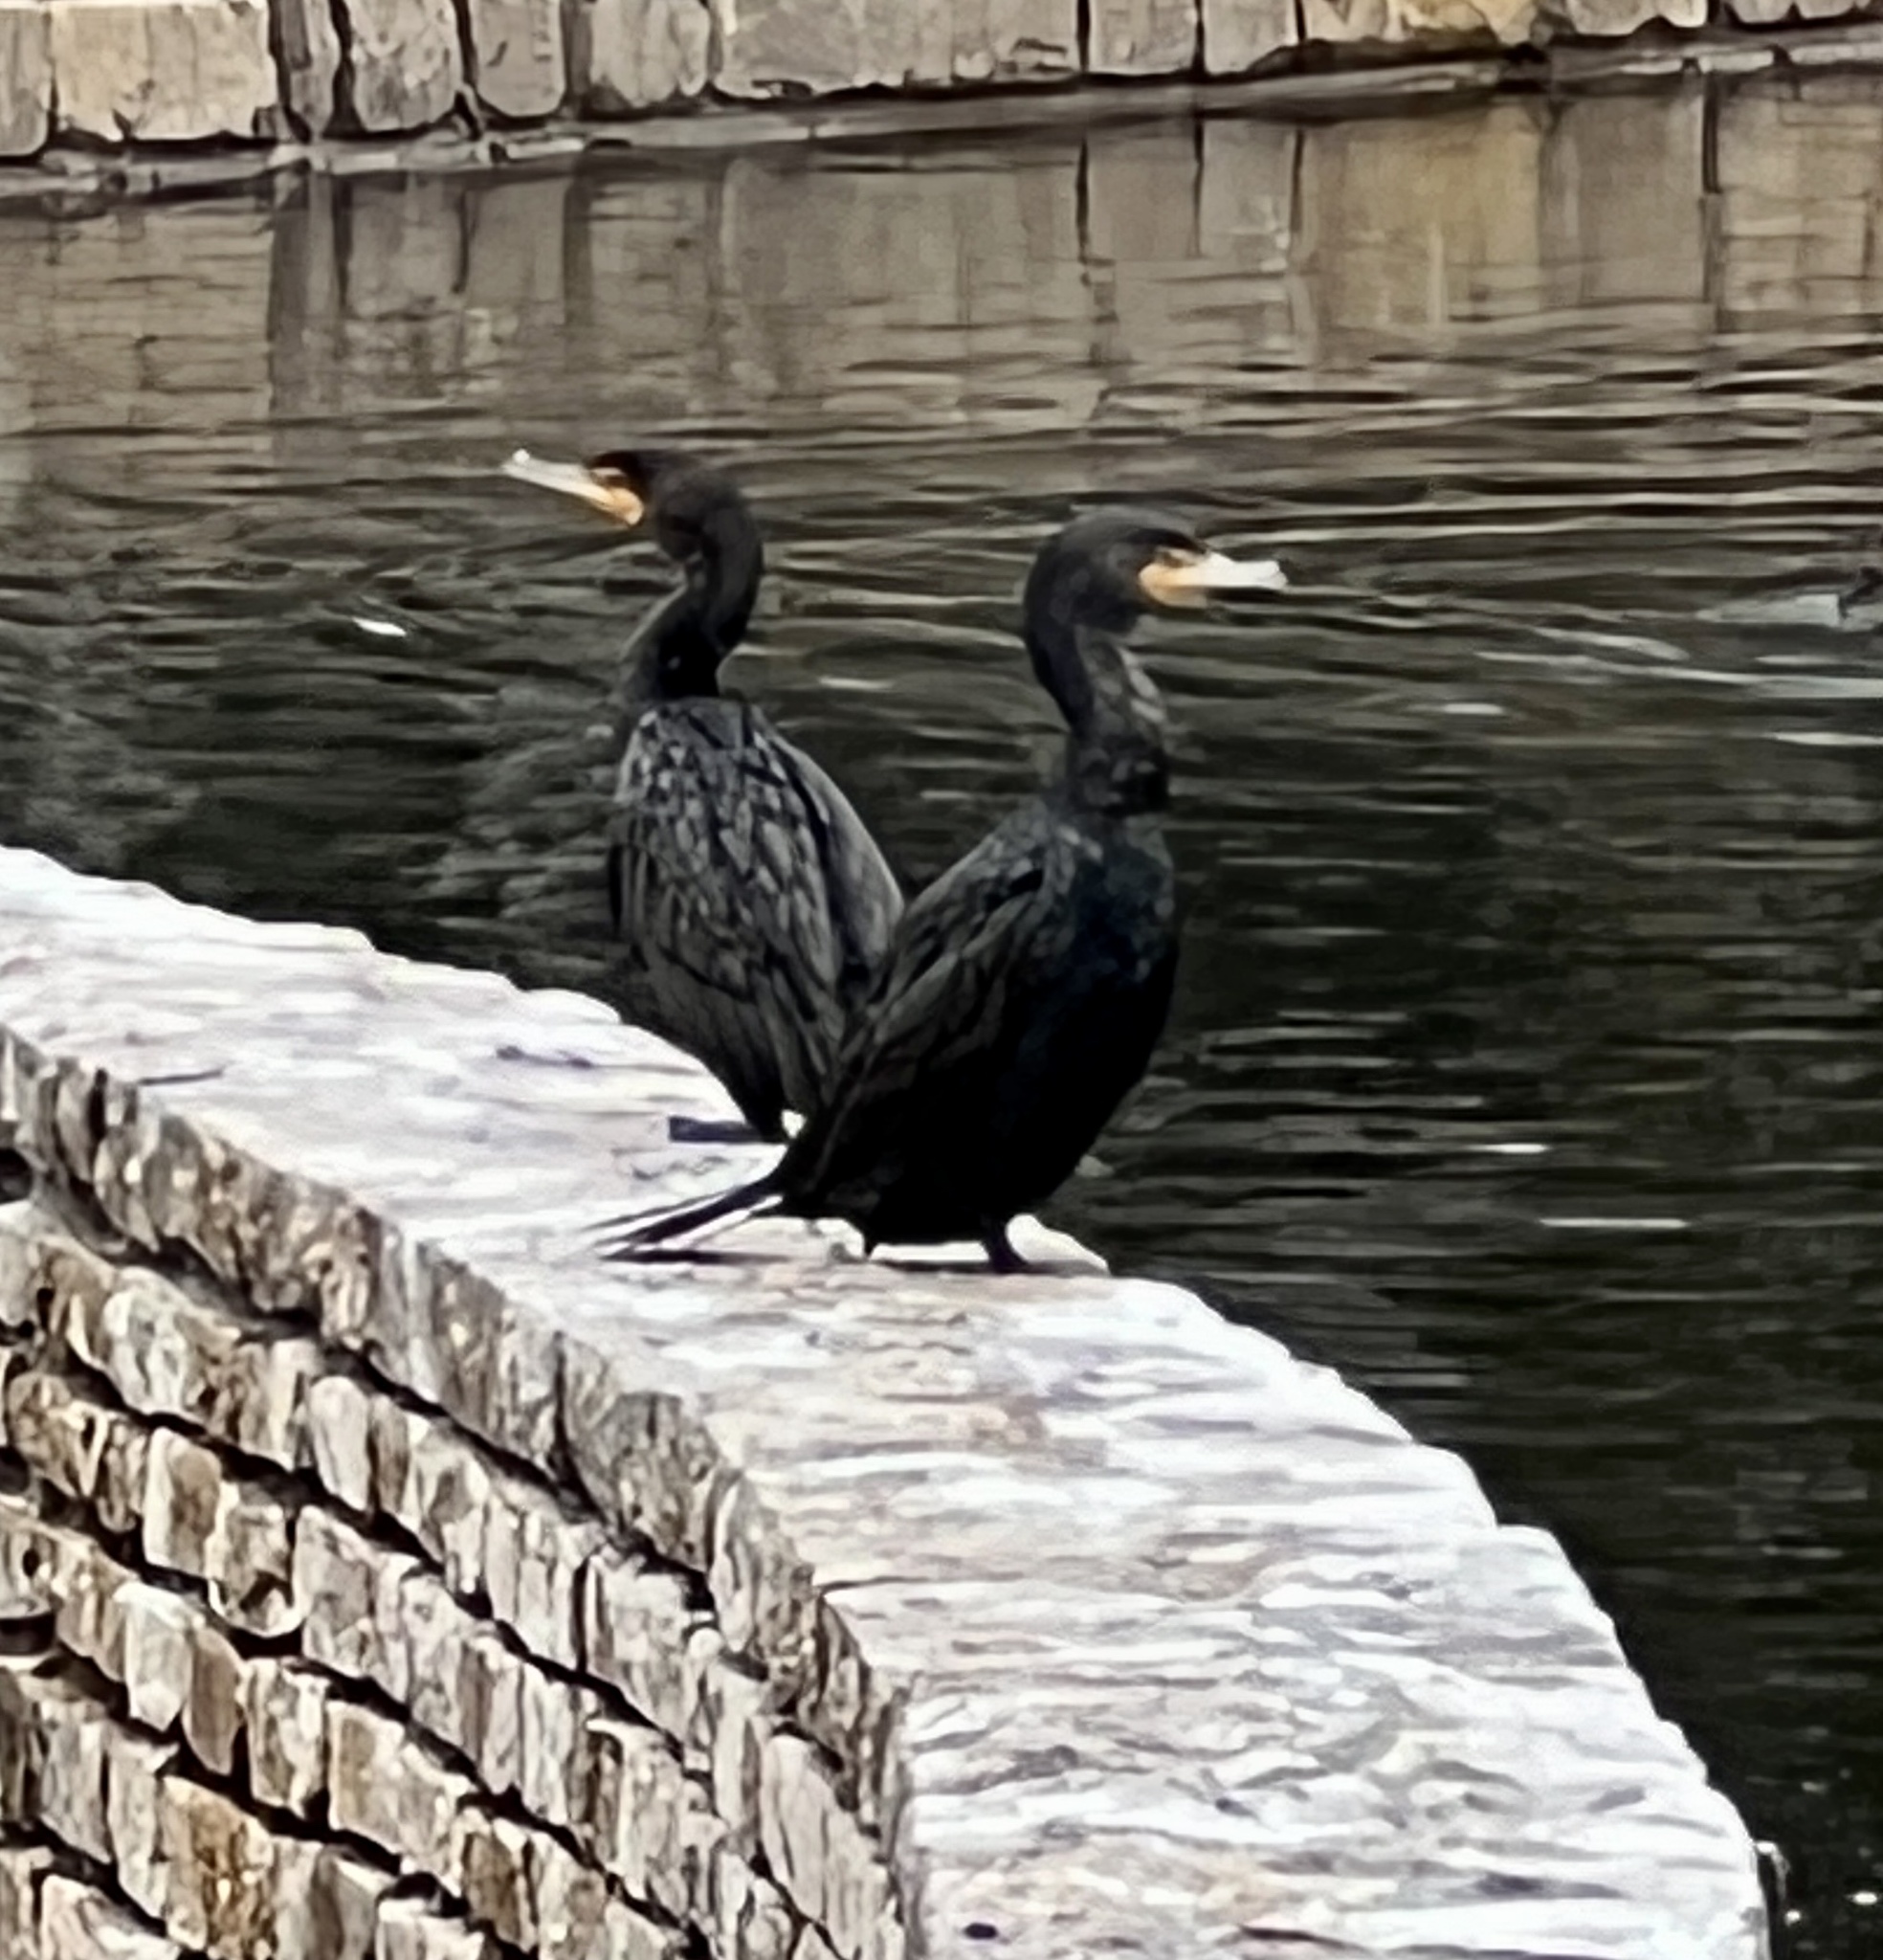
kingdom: Animalia
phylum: Chordata
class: Aves
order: Suliformes
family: Phalacrocoracidae
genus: Phalacrocorax
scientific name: Phalacrocorax auritus
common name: Double-crested cormorant
